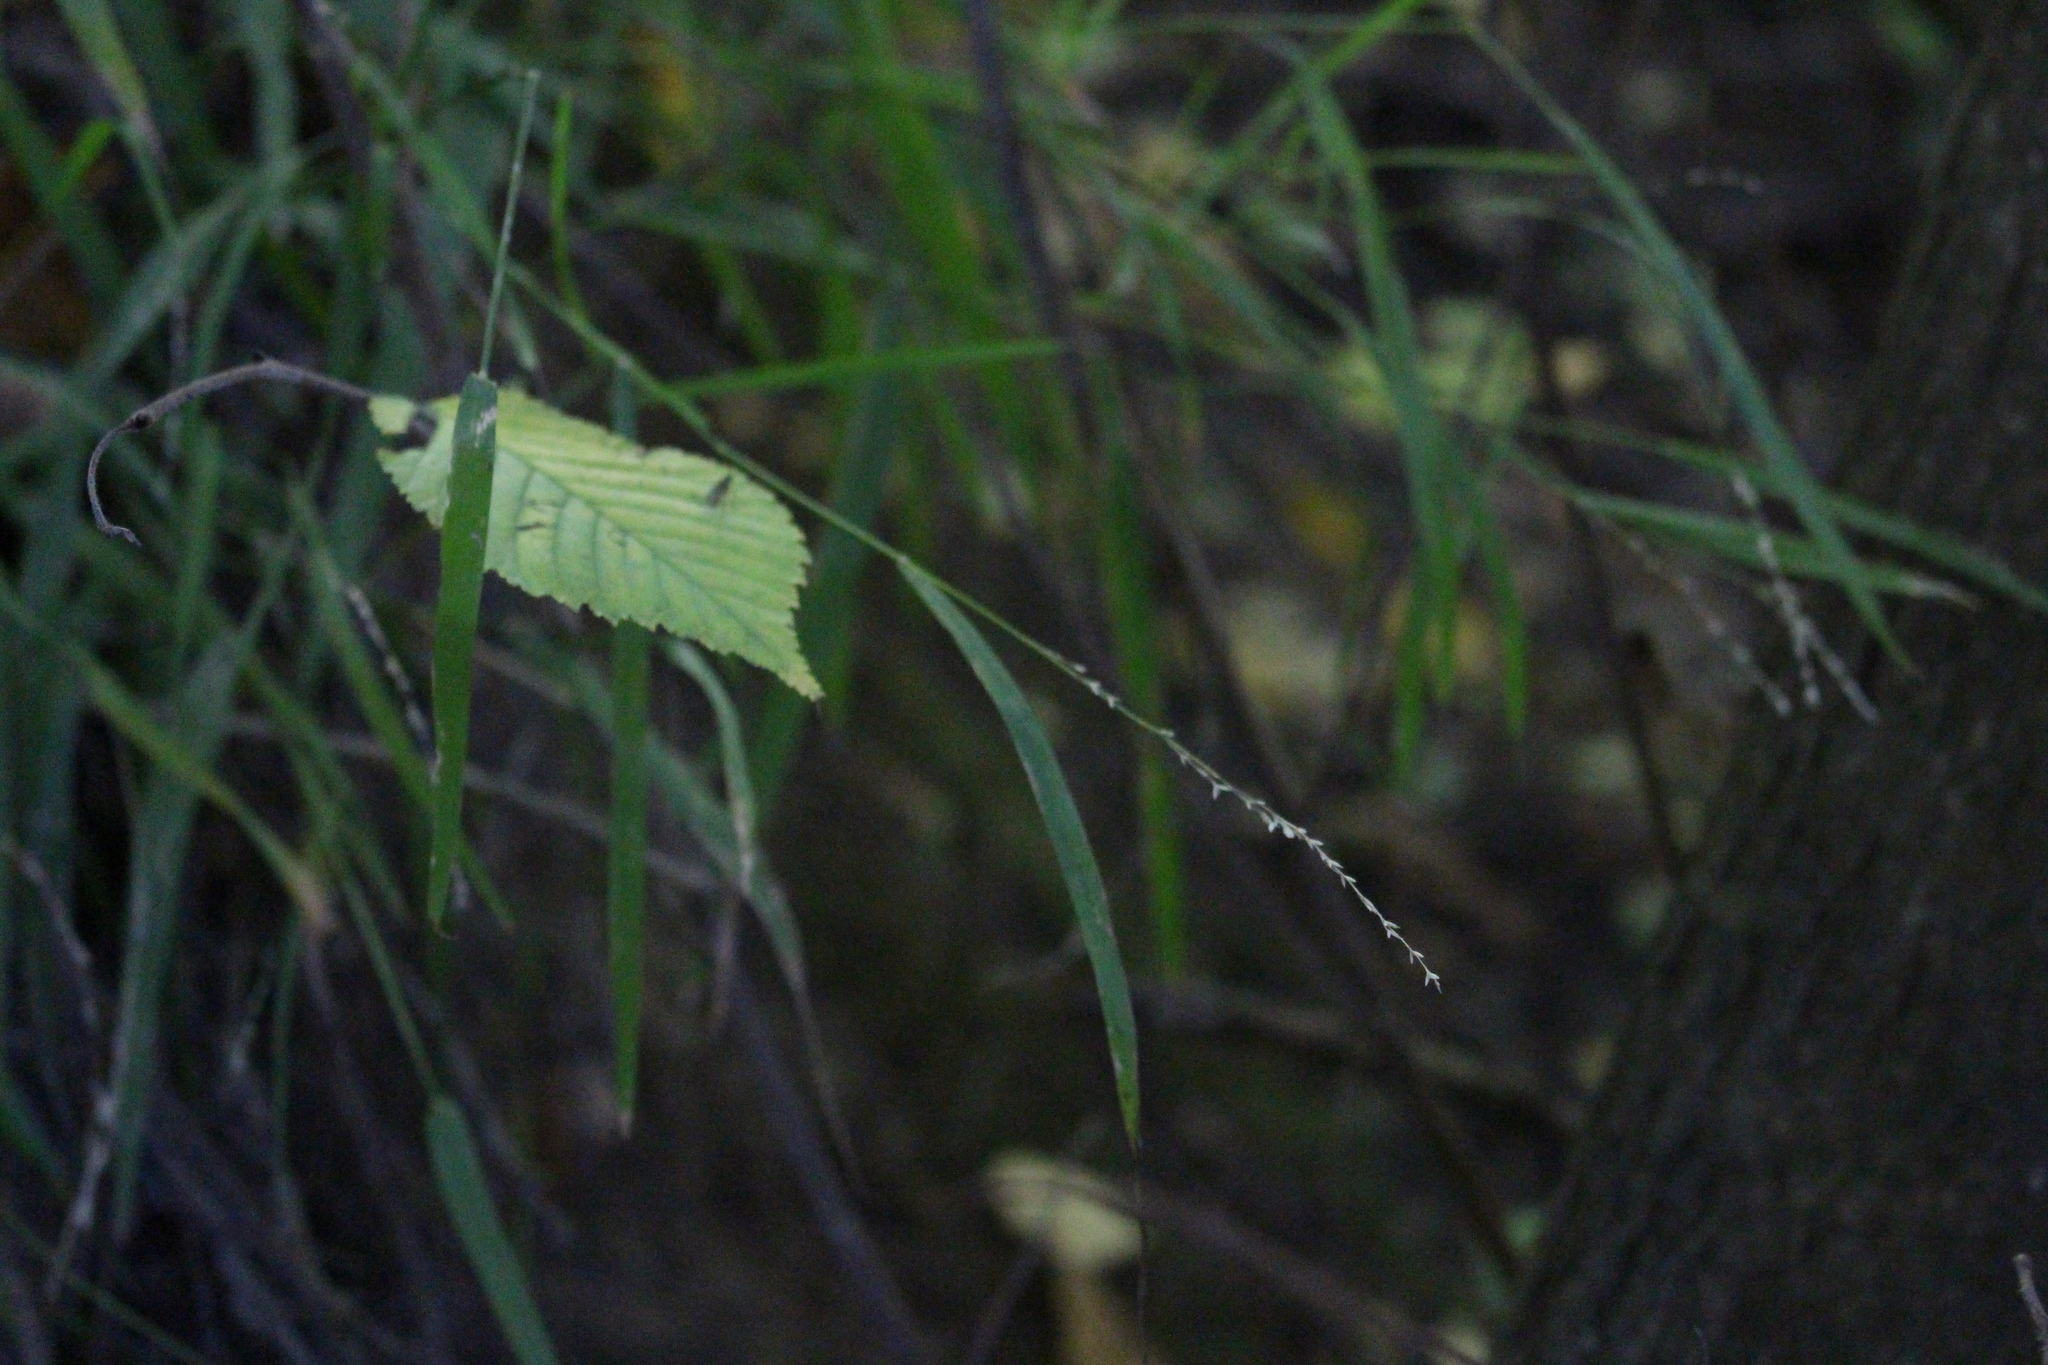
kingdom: Plantae
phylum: Tracheophyta
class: Liliopsida
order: Poales
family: Poaceae
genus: Ehrharta
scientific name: Ehrharta erecta
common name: Panic veldtgrass
